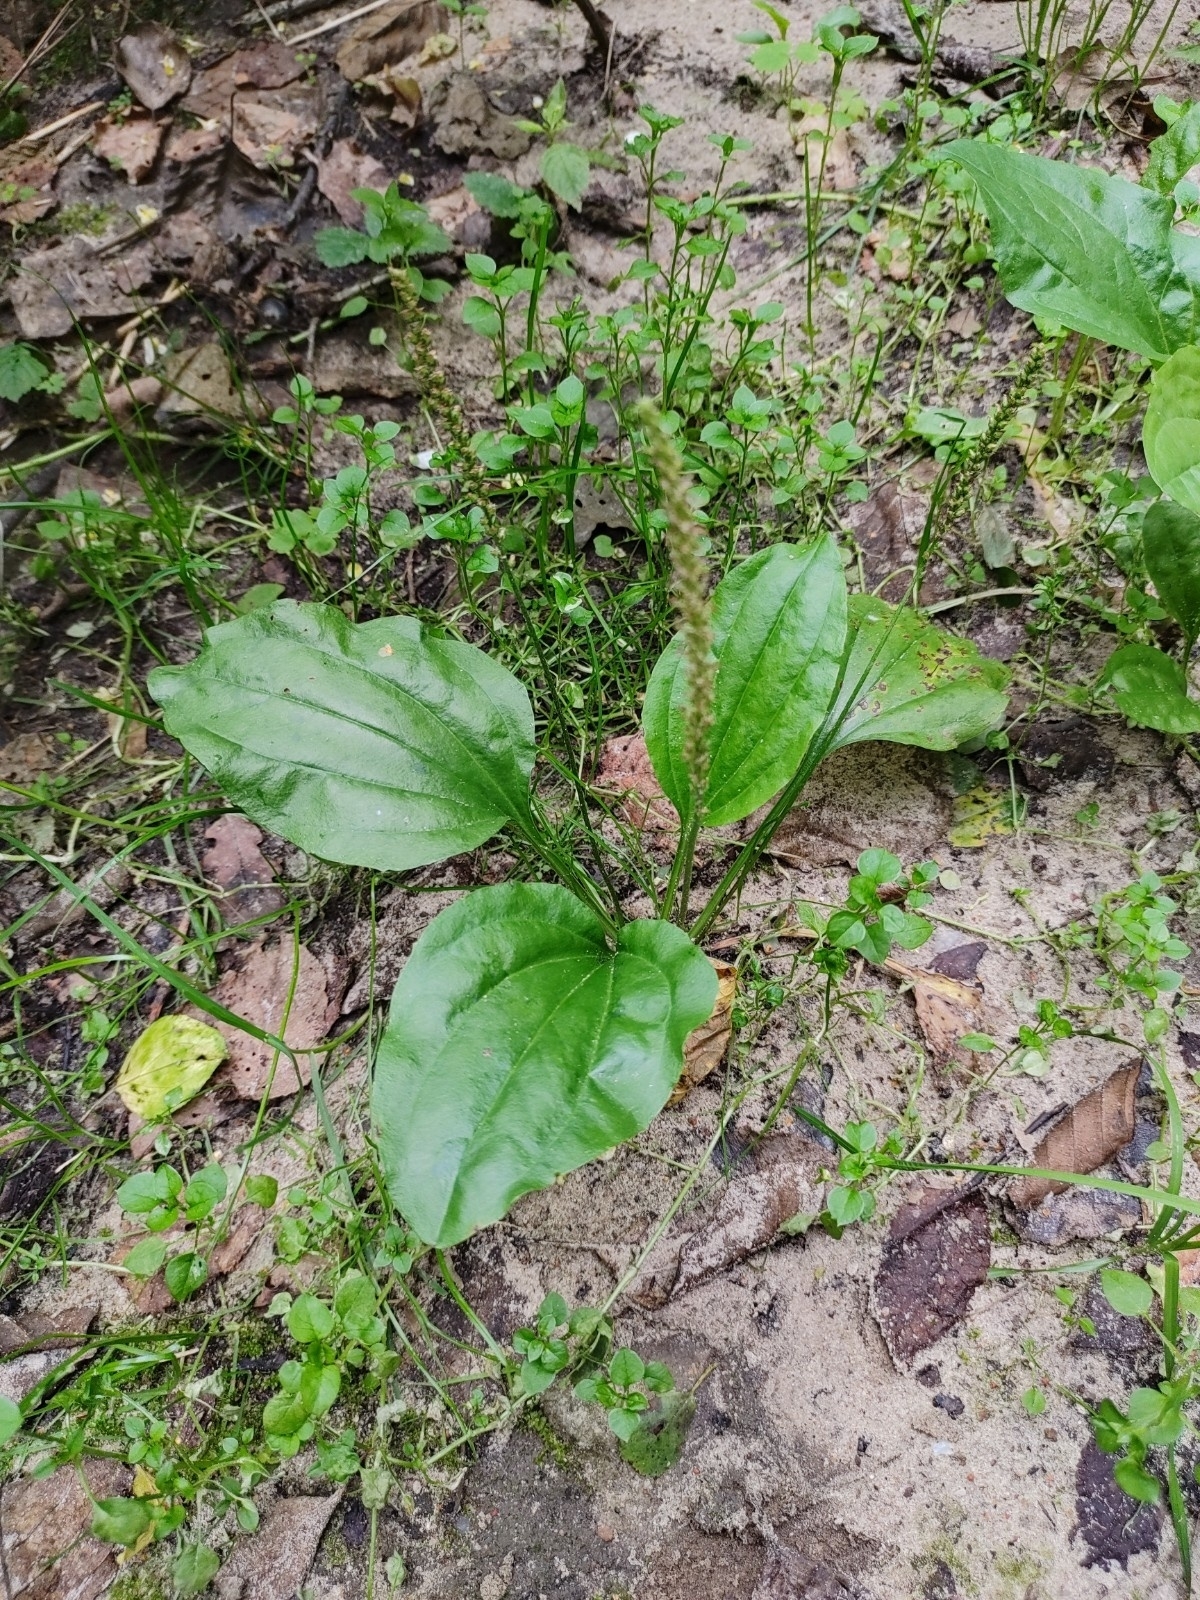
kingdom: Plantae
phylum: Tracheophyta
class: Magnoliopsida
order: Lamiales
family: Plantaginaceae
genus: Plantago
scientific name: Plantago major
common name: Common plantain
